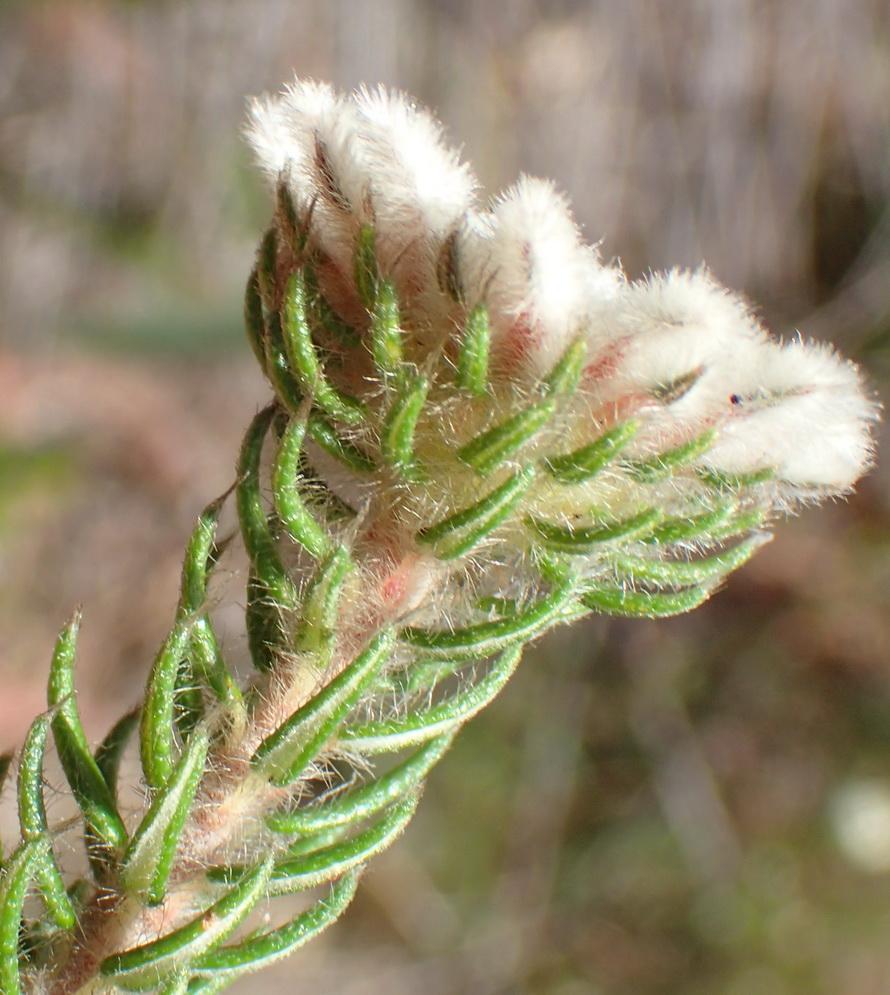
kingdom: Plantae
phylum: Tracheophyta
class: Magnoliopsida
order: Rosales
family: Rhamnaceae
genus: Phylica
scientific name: Phylica curvifolia
